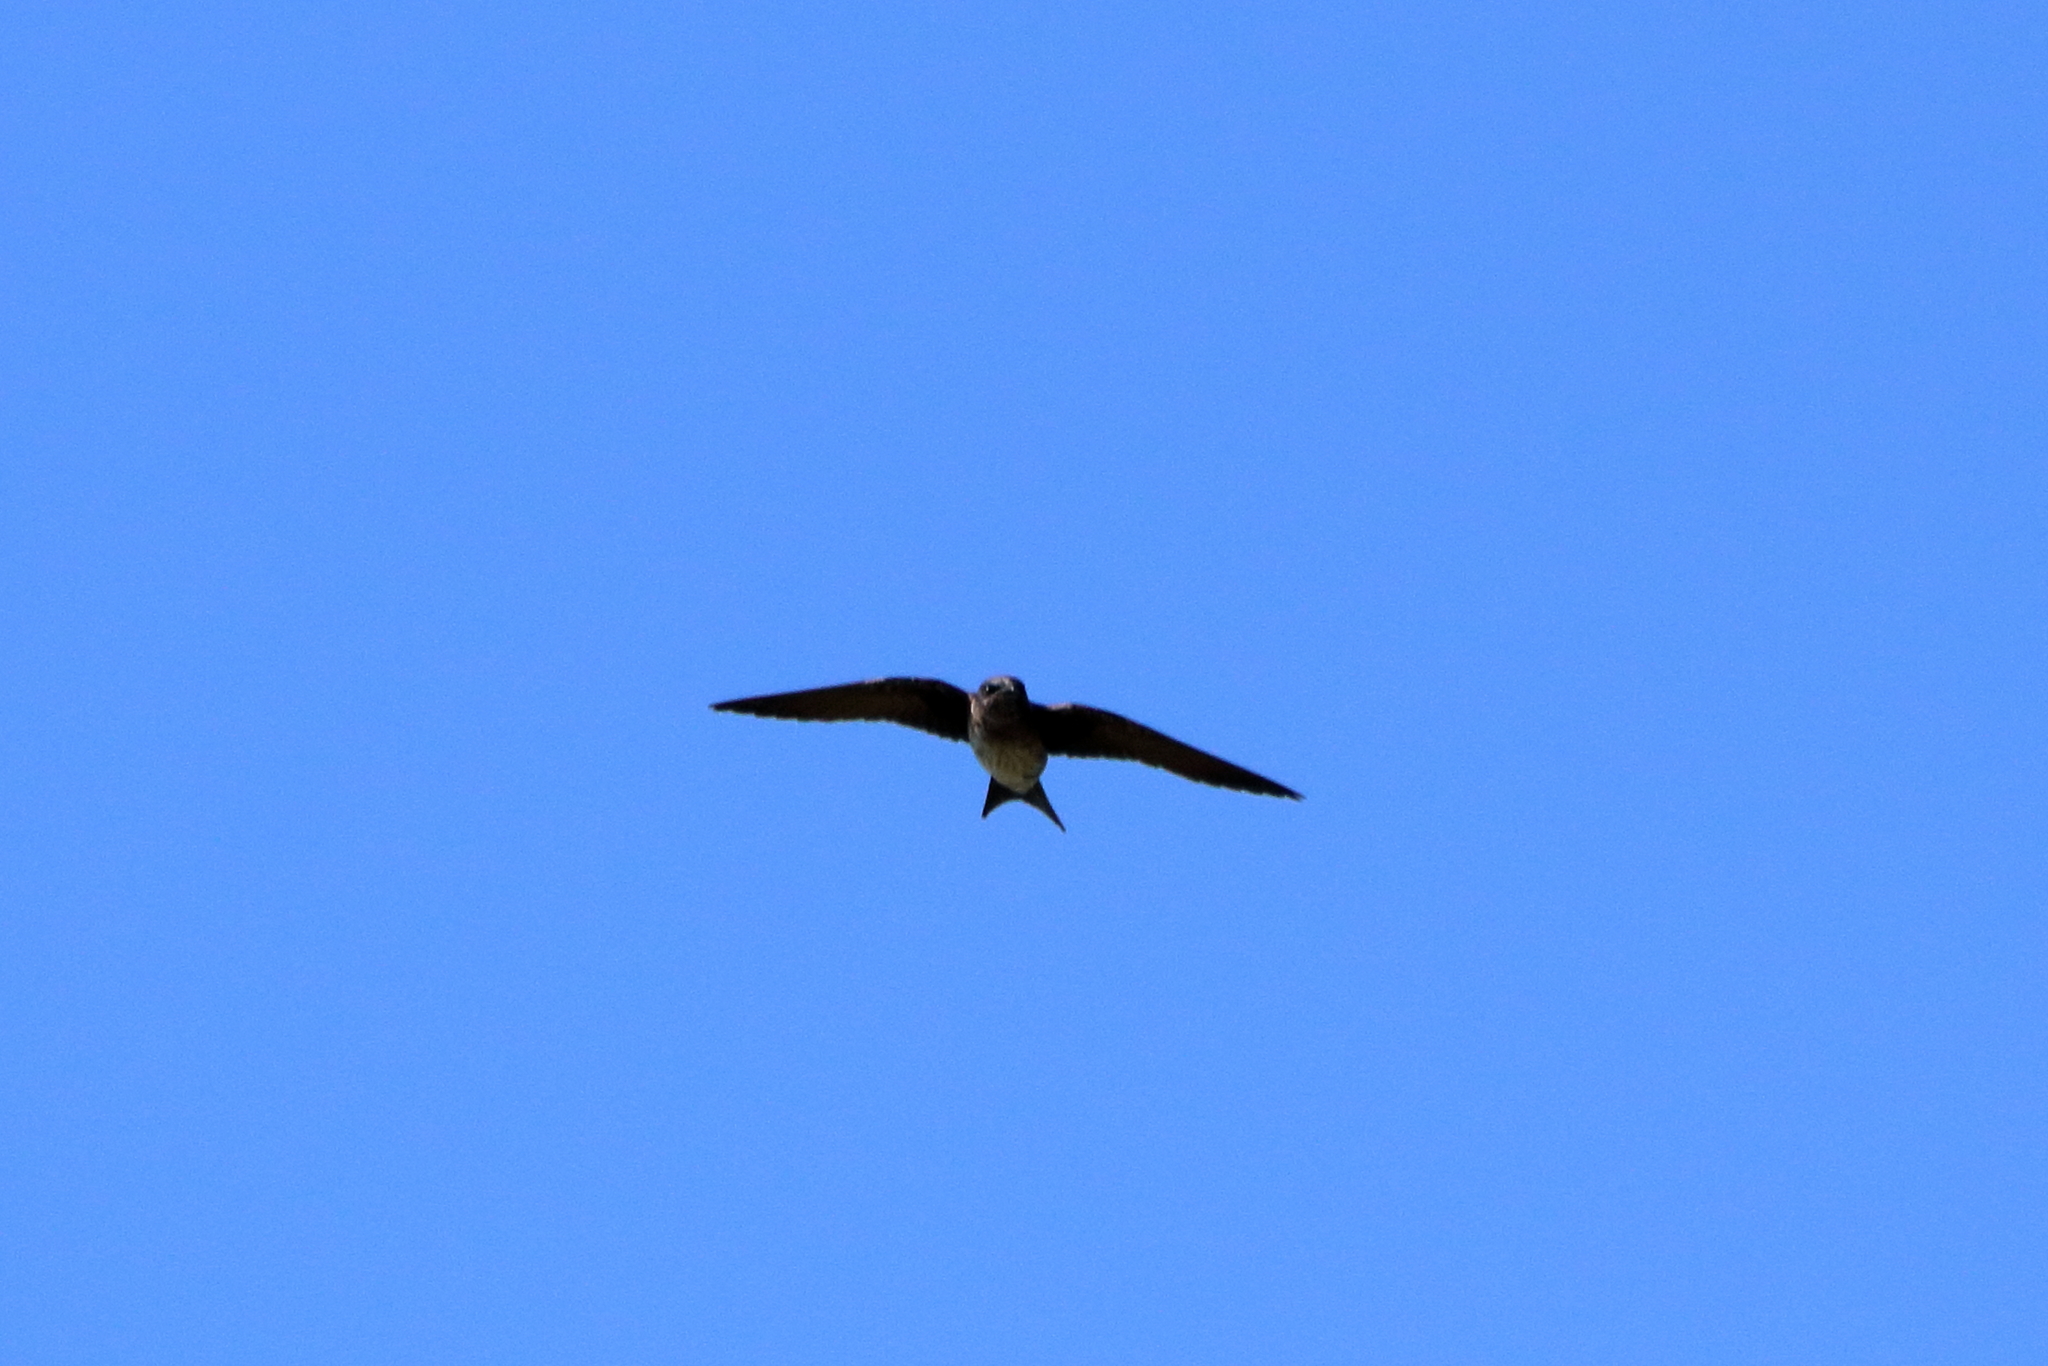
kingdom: Animalia
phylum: Chordata
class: Aves
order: Passeriformes
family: Hirundinidae
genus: Progne
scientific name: Progne subis
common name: Purple martin
